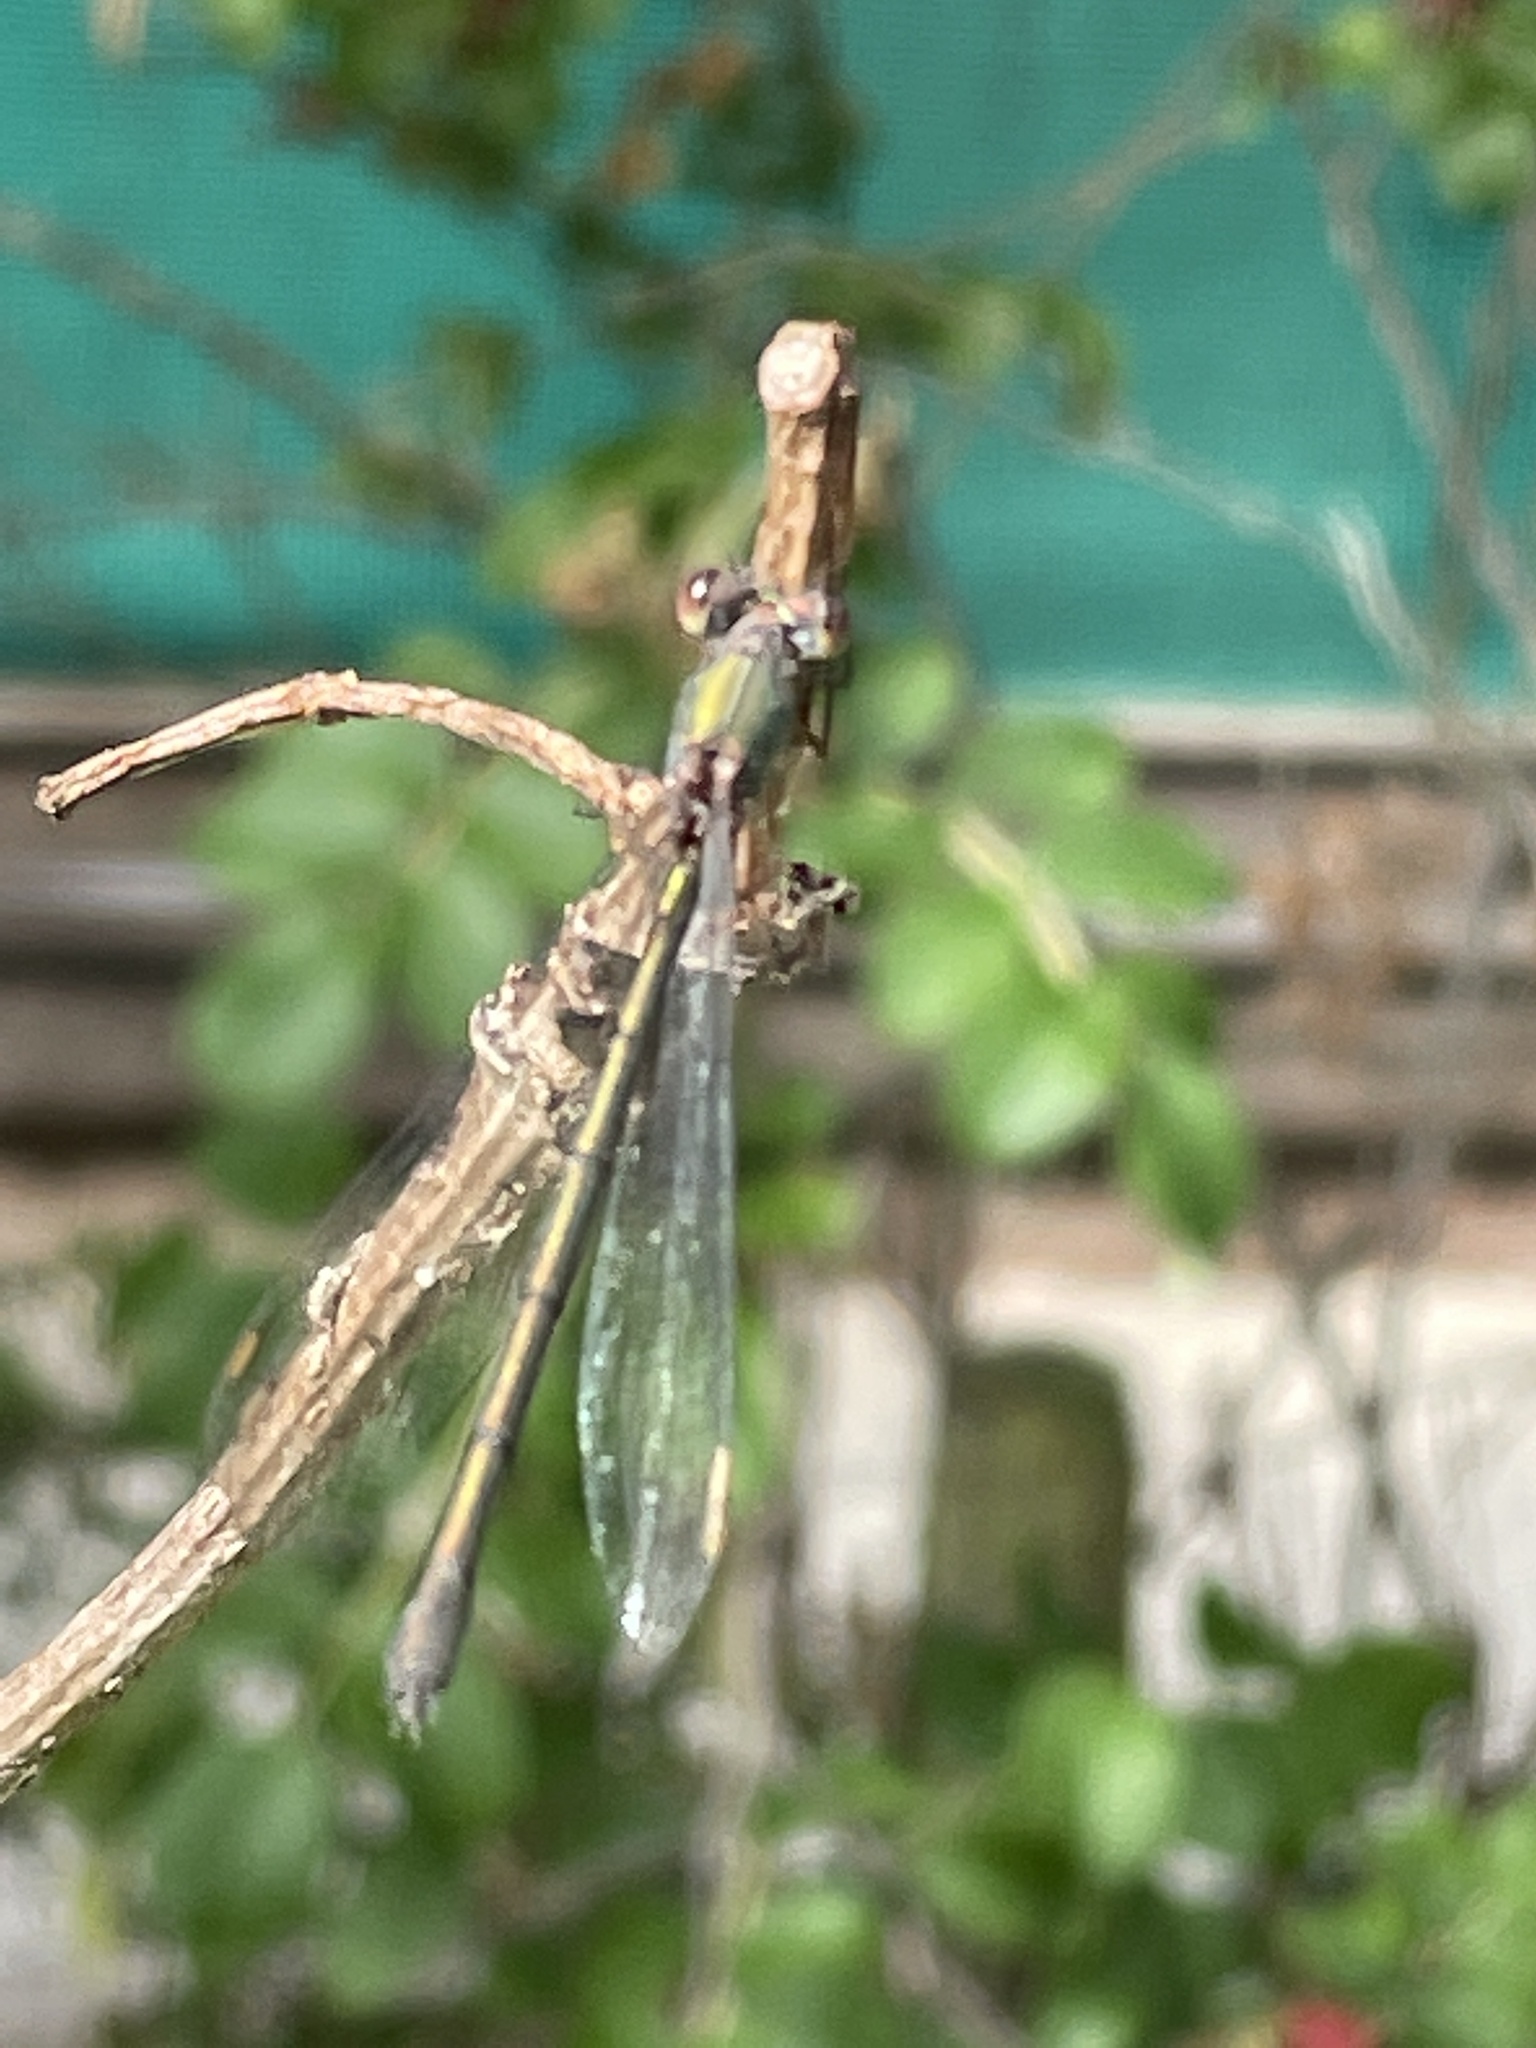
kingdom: Animalia
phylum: Arthropoda
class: Insecta
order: Odonata
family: Lestidae
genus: Chalcolestes
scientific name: Chalcolestes viridis
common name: Green emerald damselfly
